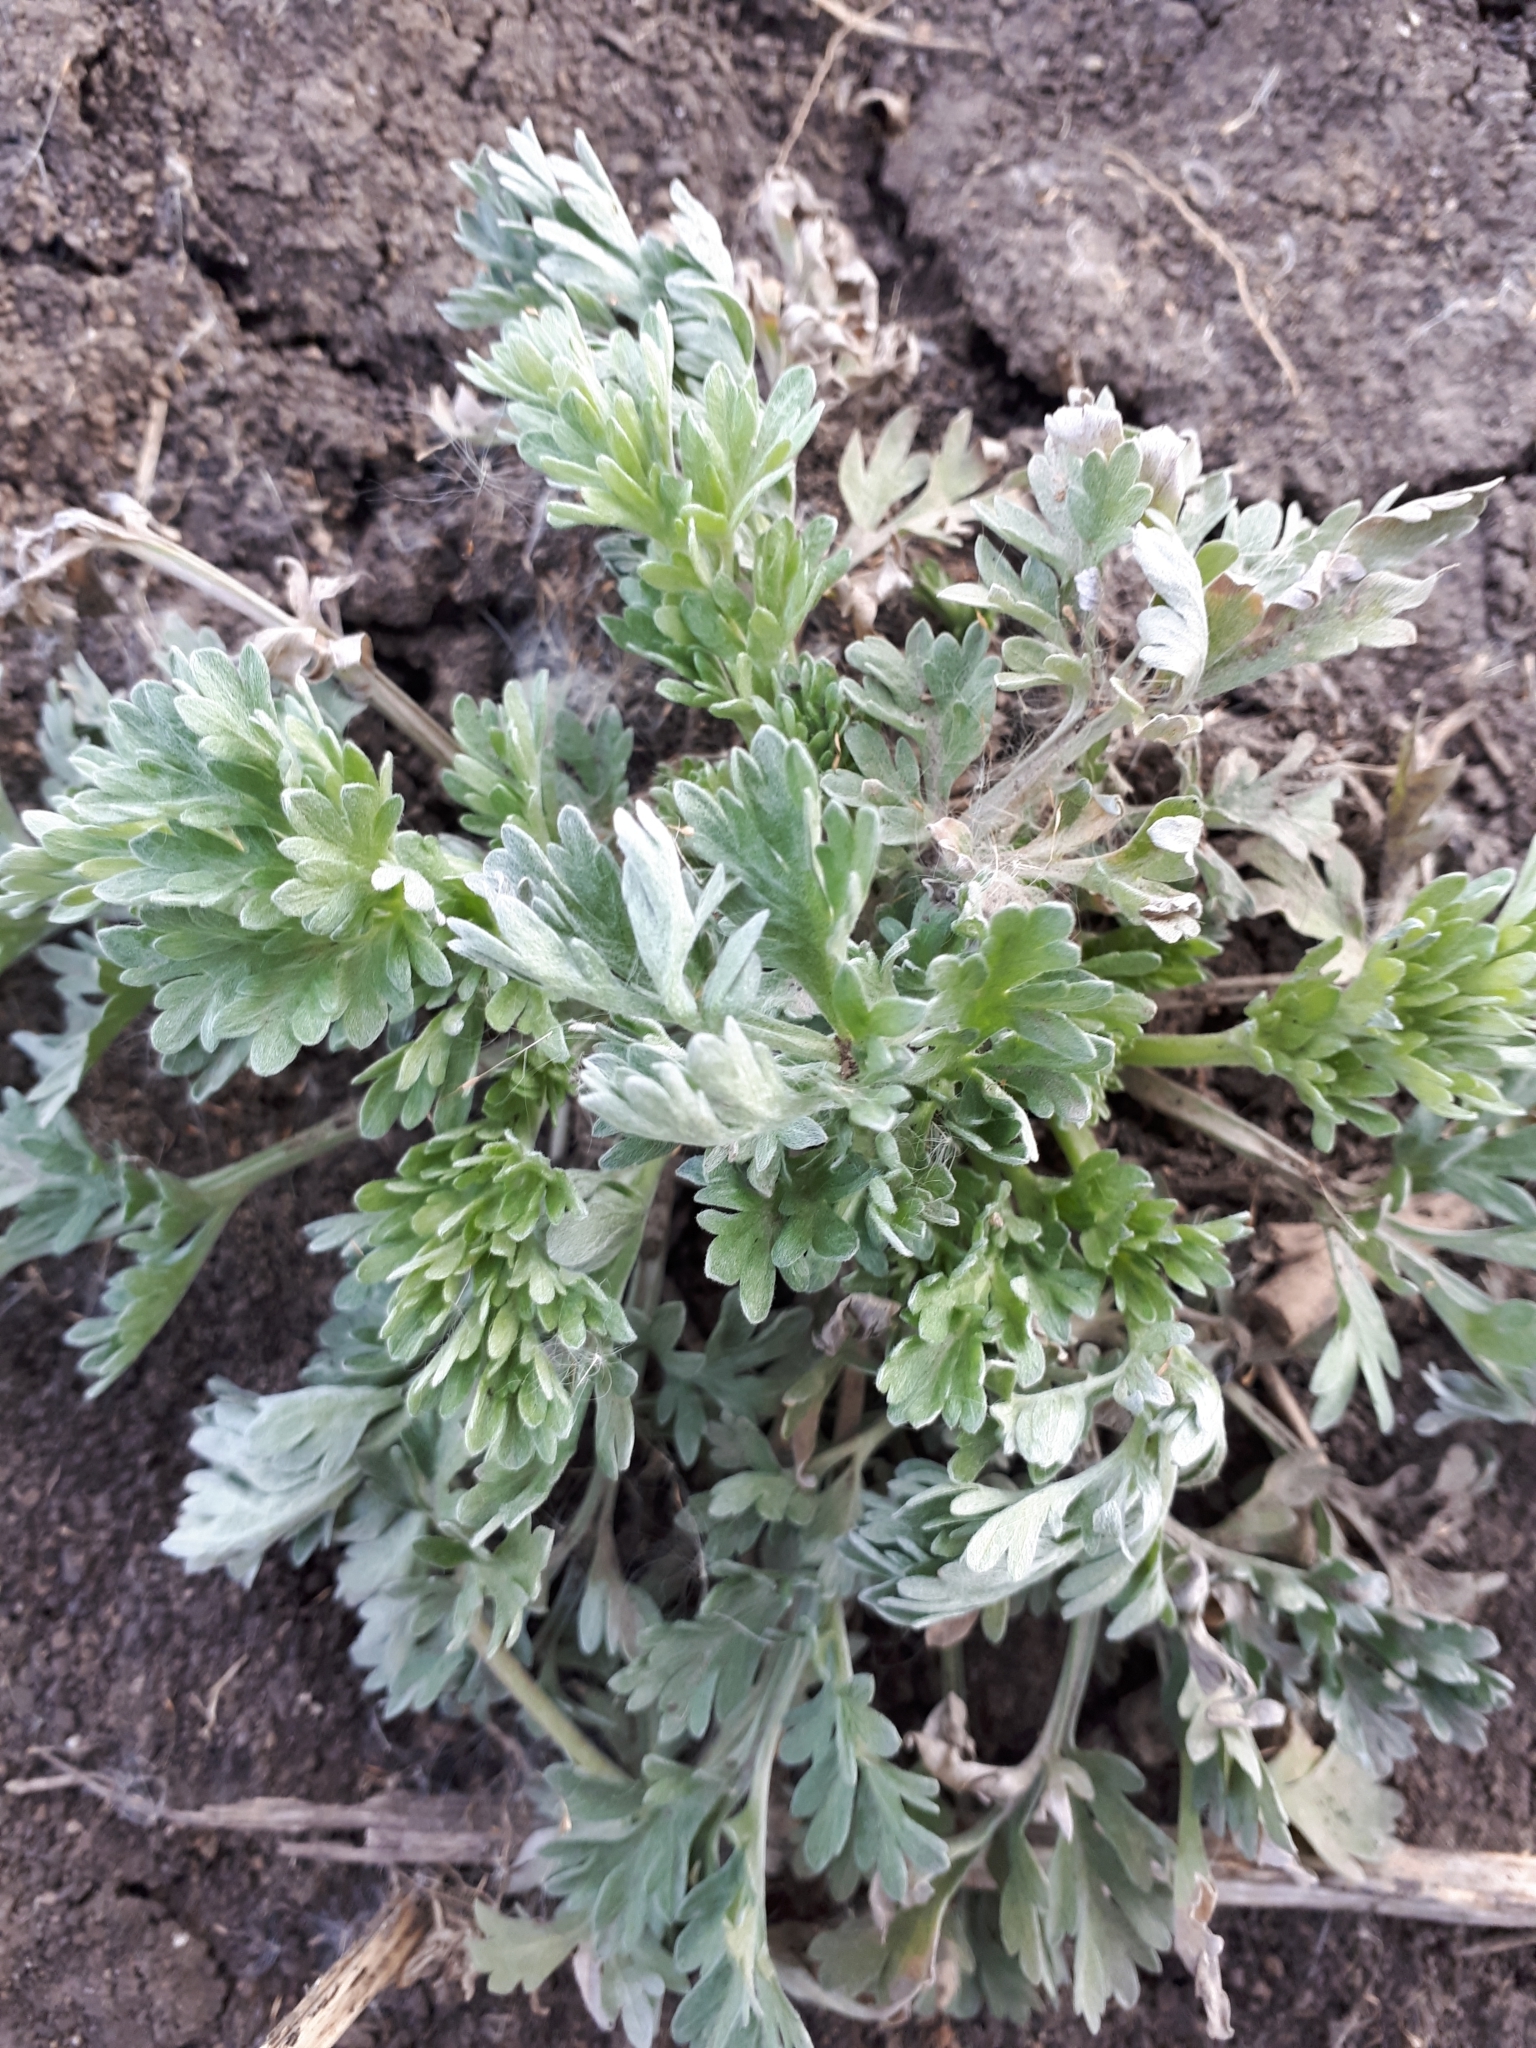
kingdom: Plantae
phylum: Tracheophyta
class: Magnoliopsida
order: Asterales
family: Asteraceae
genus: Artemisia
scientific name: Artemisia absinthium
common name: Wormwood
